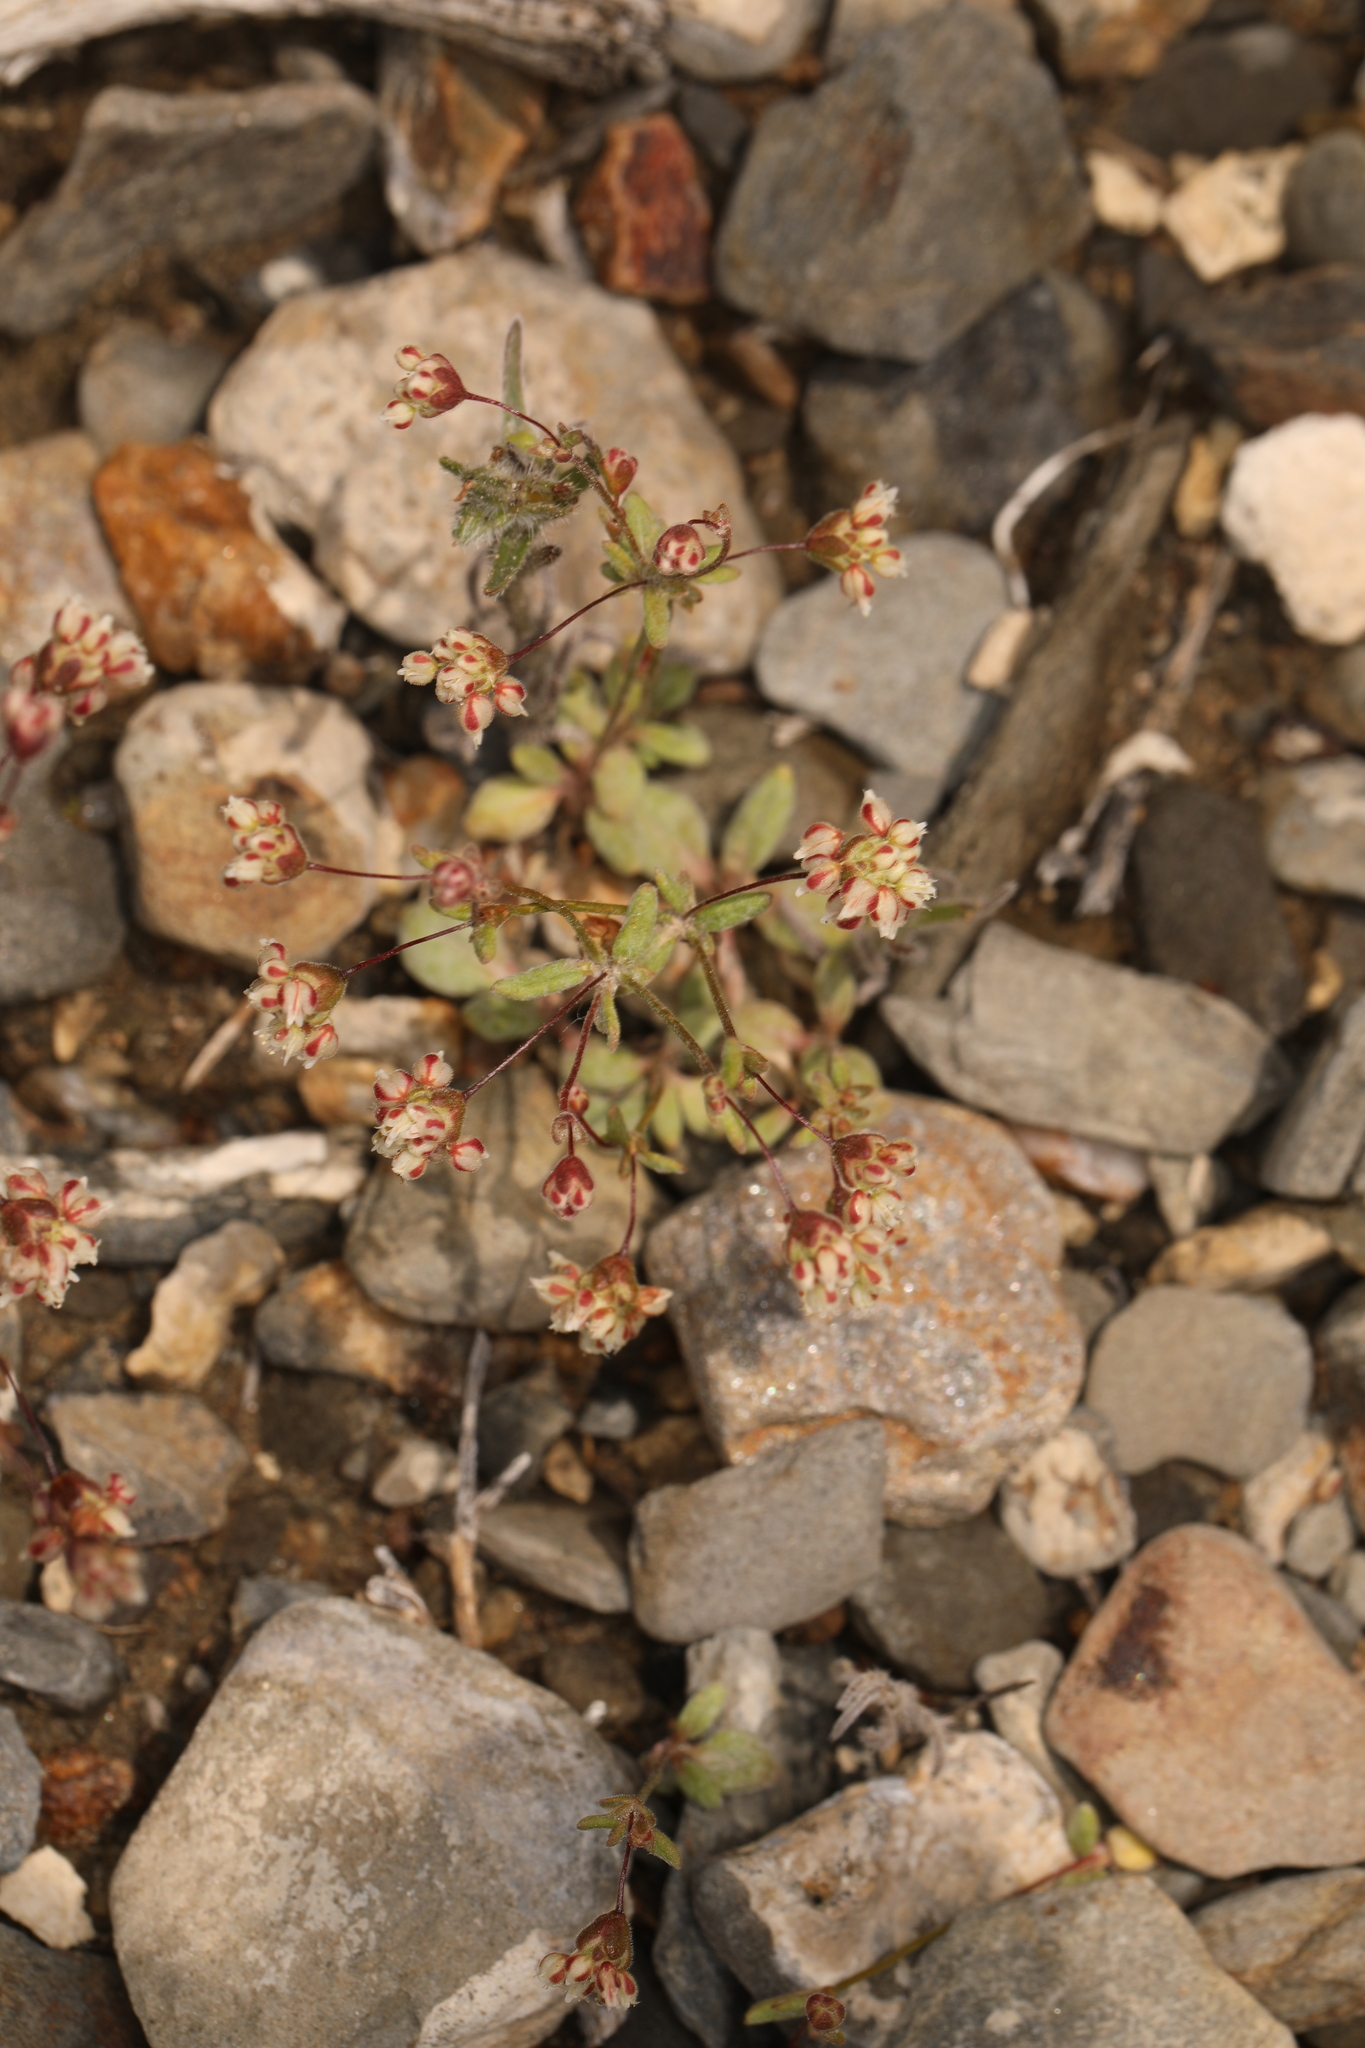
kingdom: Plantae
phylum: Tracheophyta
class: Magnoliopsida
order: Caryophyllales
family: Polygonaceae
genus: Eriogonum
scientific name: Eriogonum maculatum
